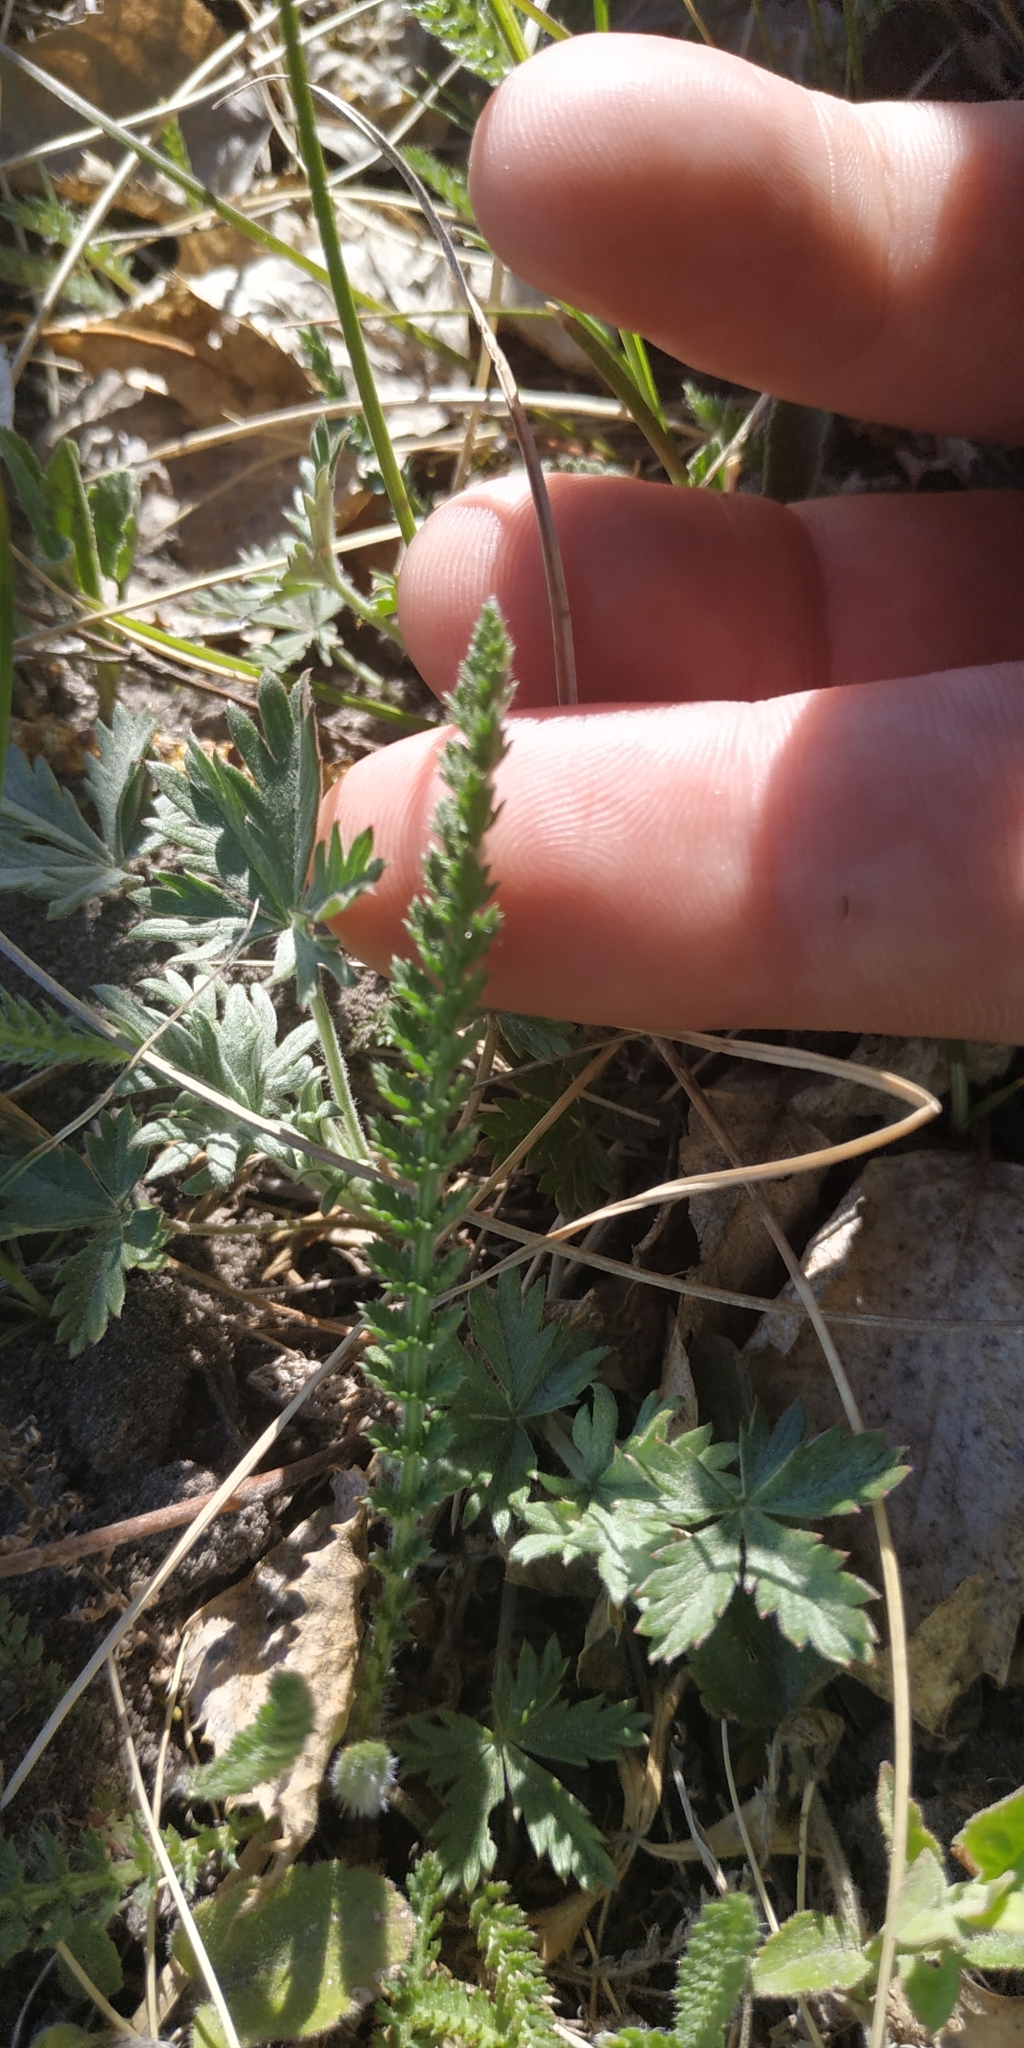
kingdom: Plantae
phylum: Tracheophyta
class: Magnoliopsida
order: Asterales
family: Asteraceae
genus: Achillea
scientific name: Achillea millefolium
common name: Yarrow
